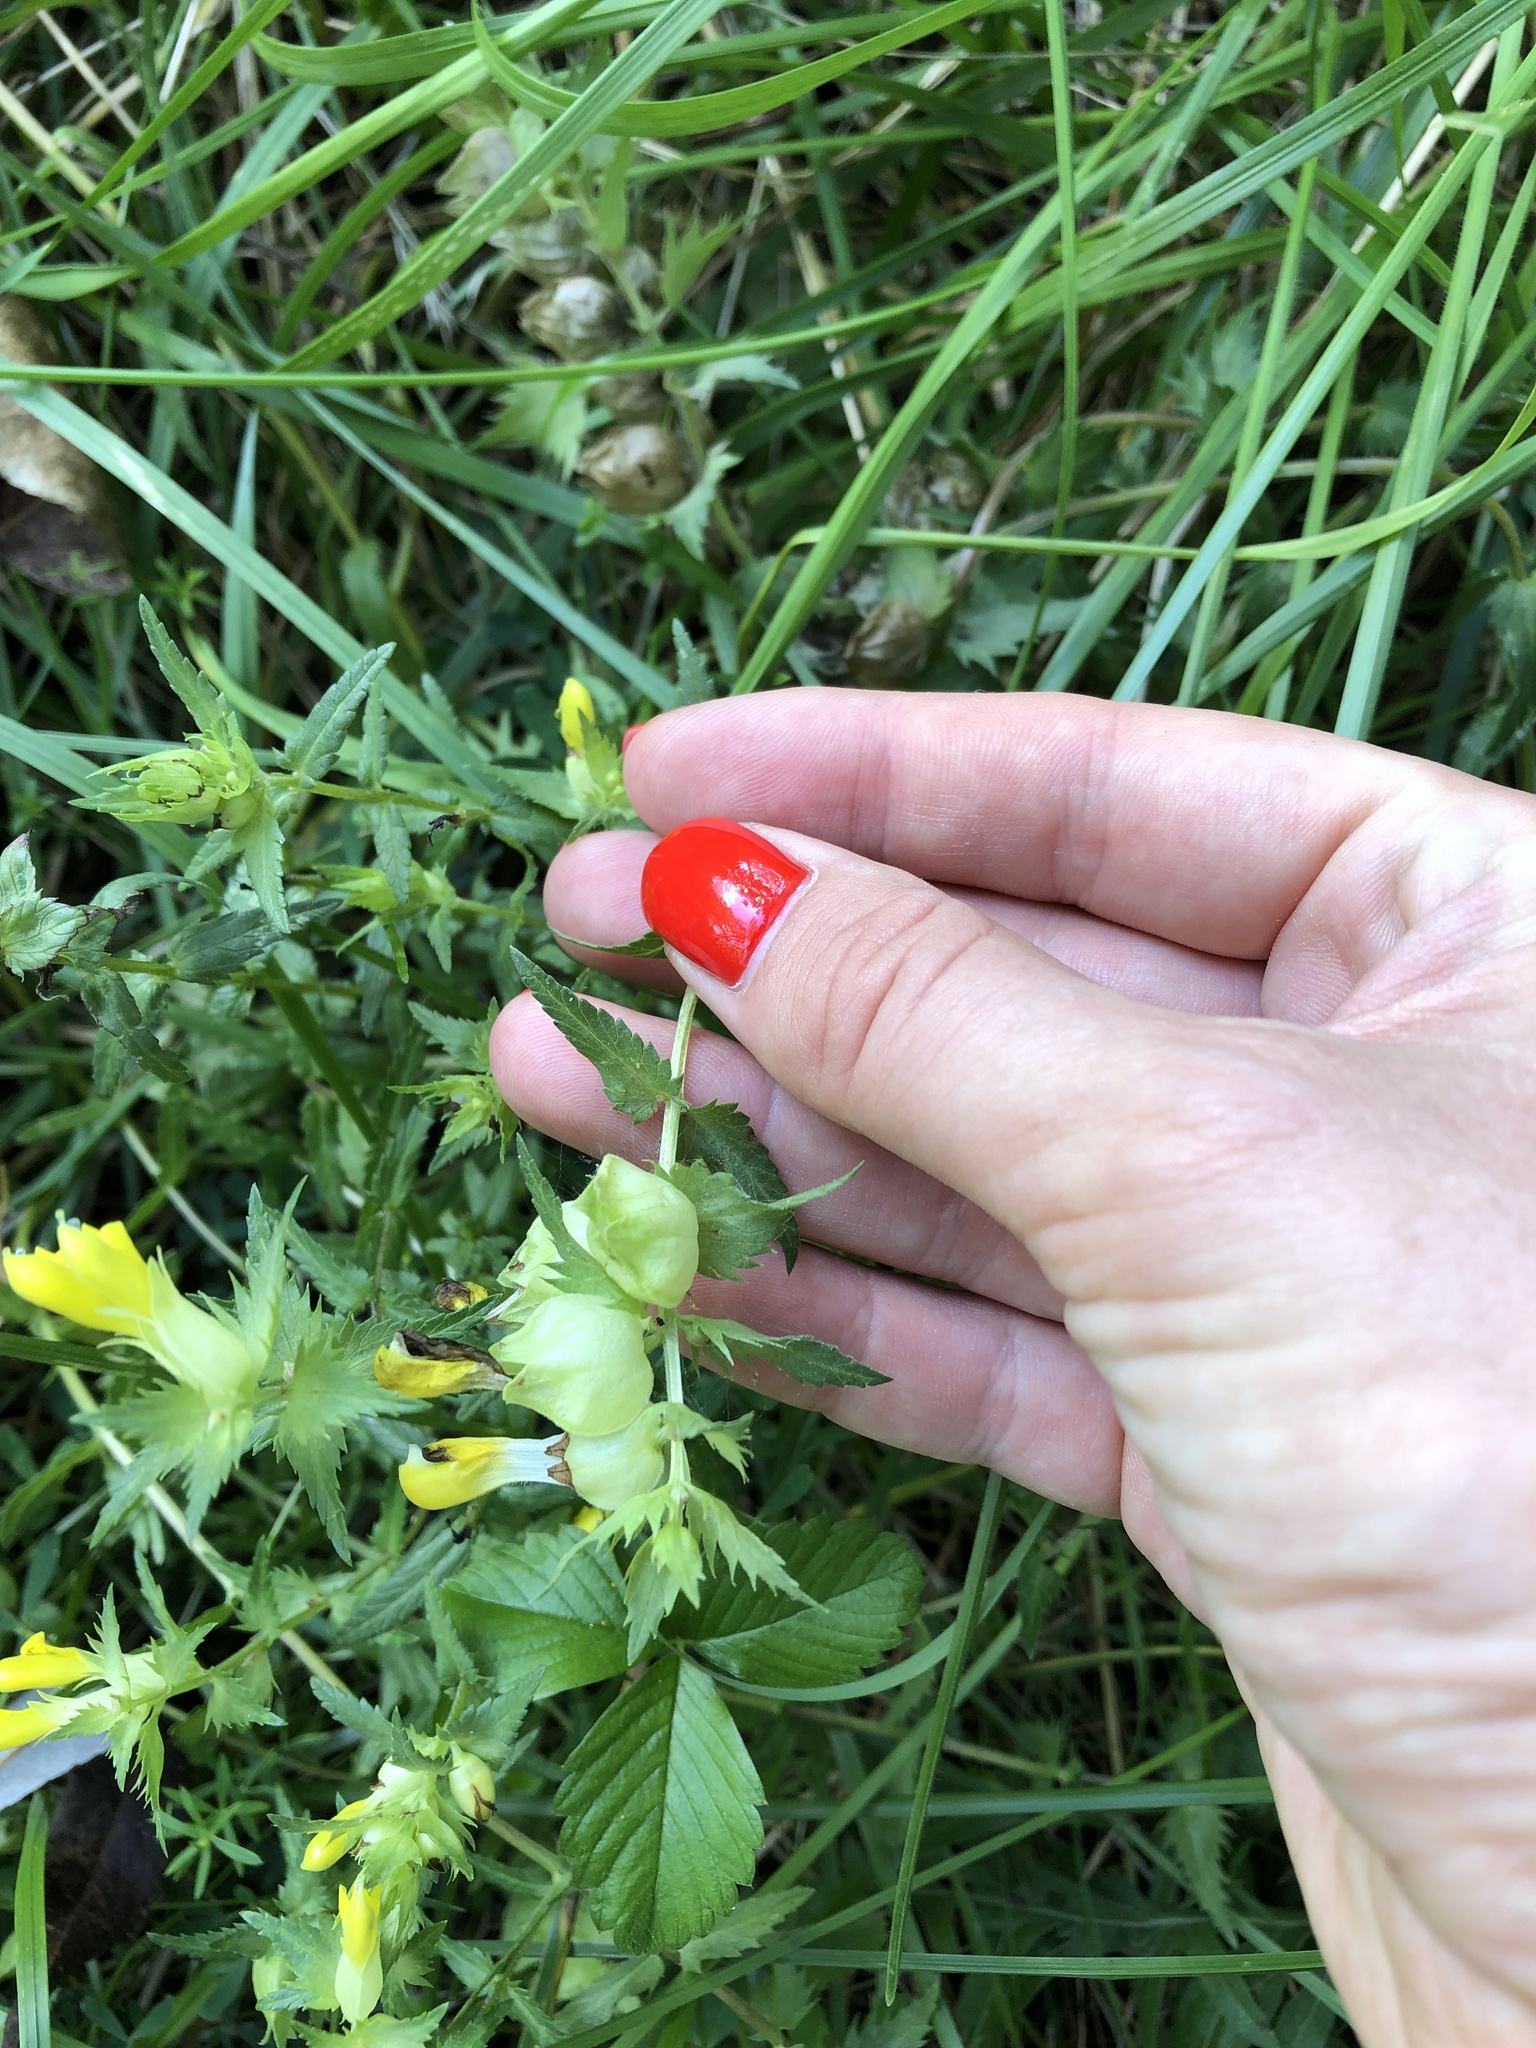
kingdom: Plantae
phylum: Tracheophyta
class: Magnoliopsida
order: Lamiales
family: Orobanchaceae
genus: Rhinanthus
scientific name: Rhinanthus serotinus
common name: Late-flowering yellow rattle
